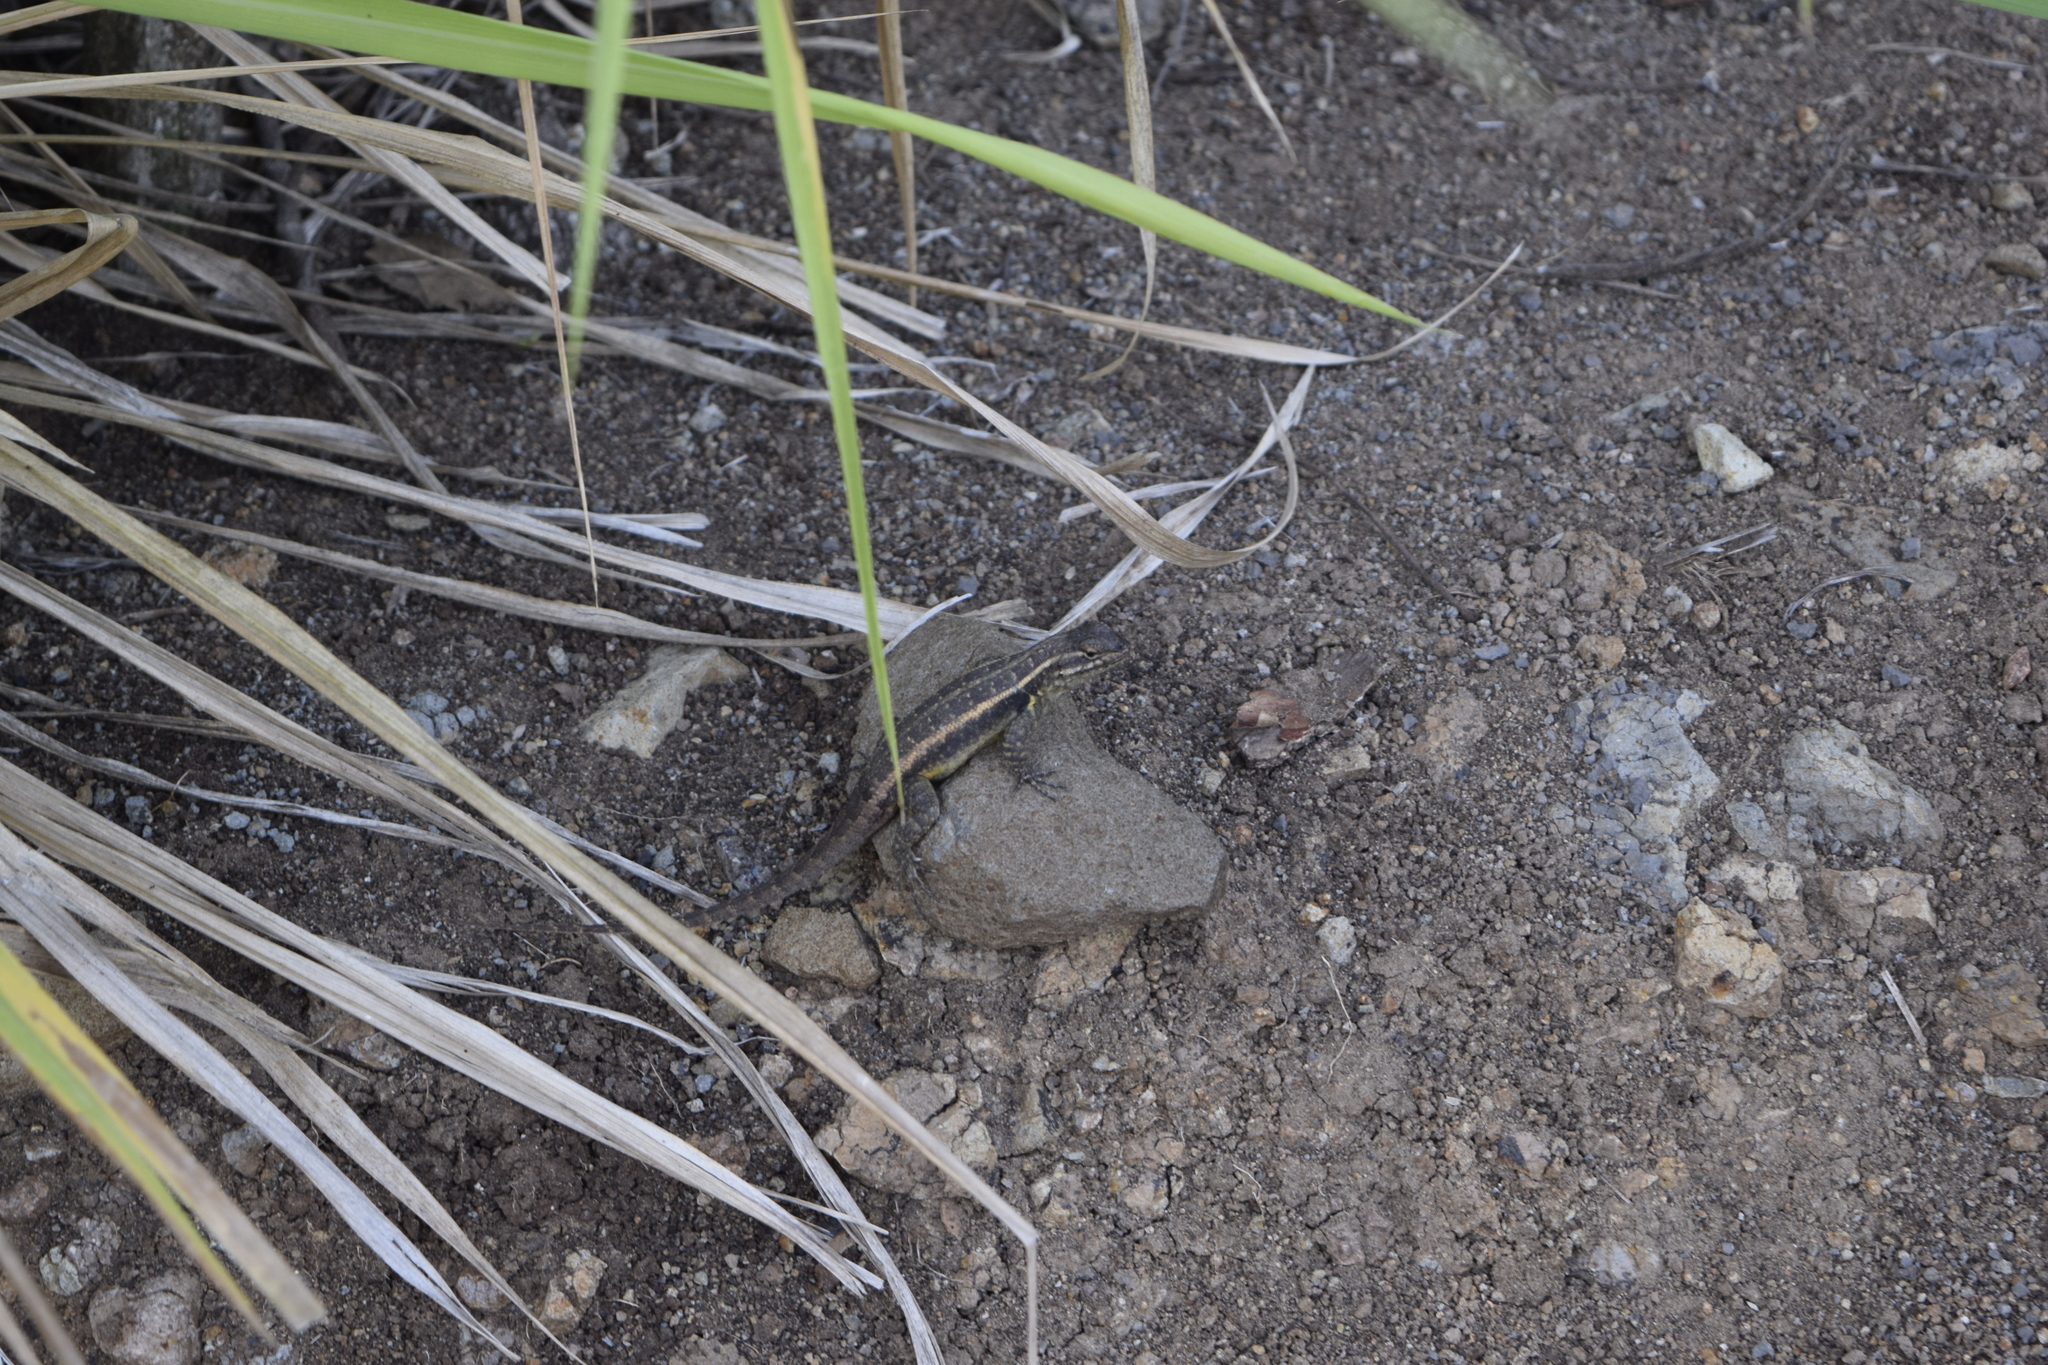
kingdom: Animalia
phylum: Chordata
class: Squamata
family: Phrynosomatidae
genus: Sceloporus
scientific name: Sceloporus variabilis
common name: Rosebelly lizard
